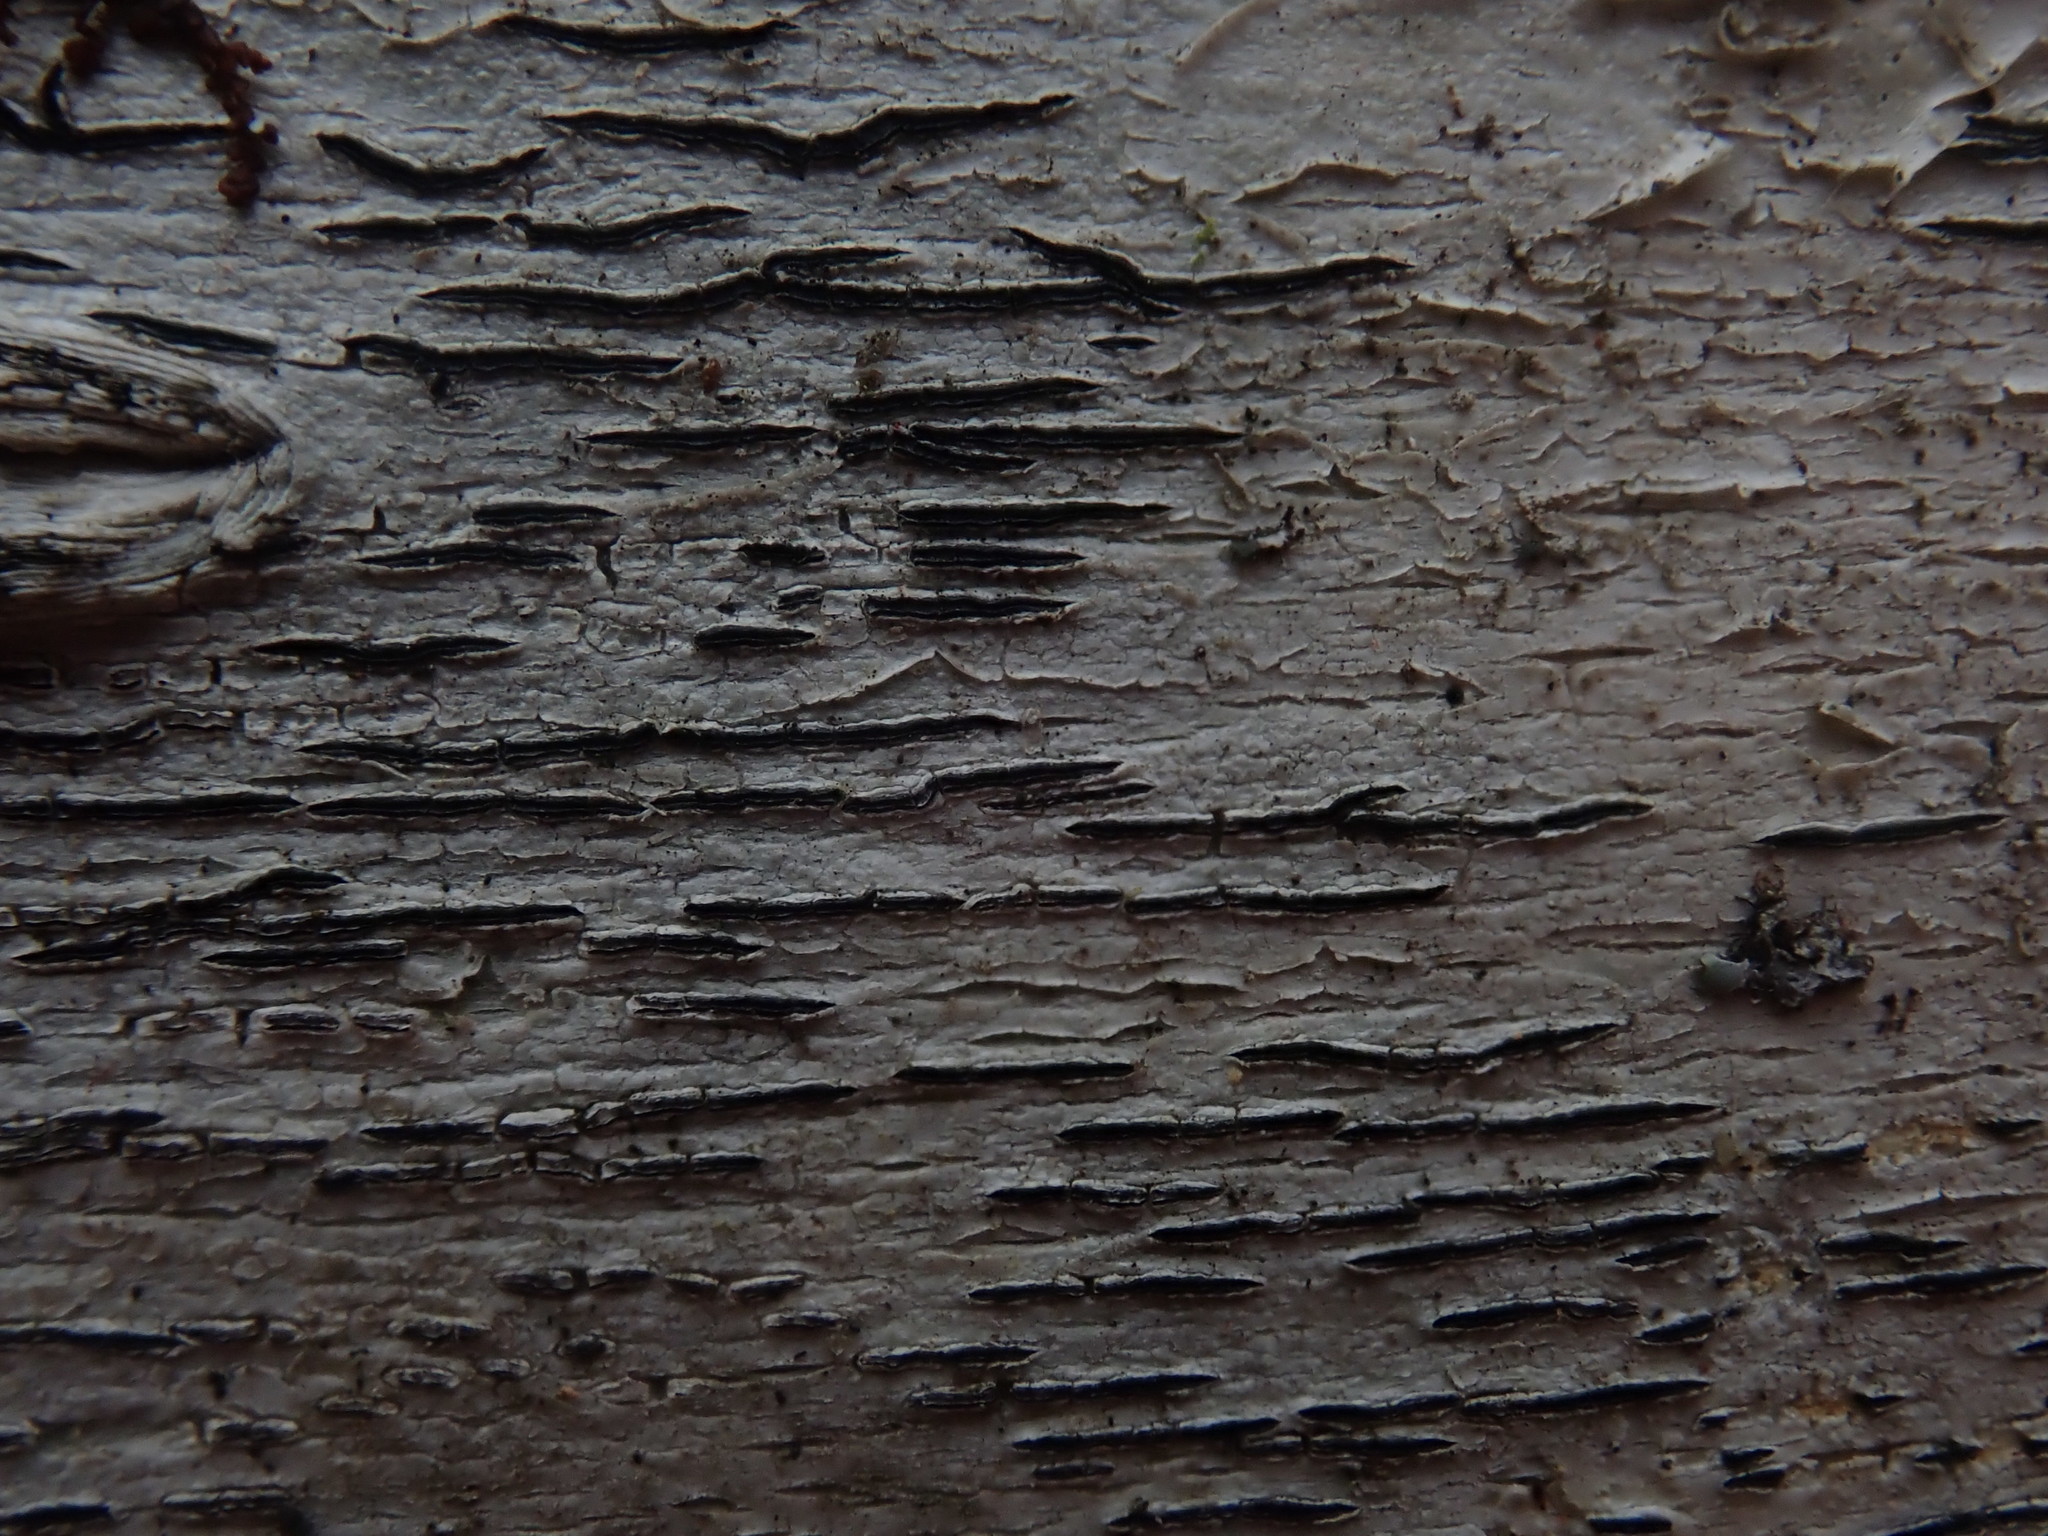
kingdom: Fungi
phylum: Ascomycota
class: Lecanoromycetes
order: Ostropales
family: Graphidaceae
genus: Graphis
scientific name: Graphis scripta
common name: Script lichen
